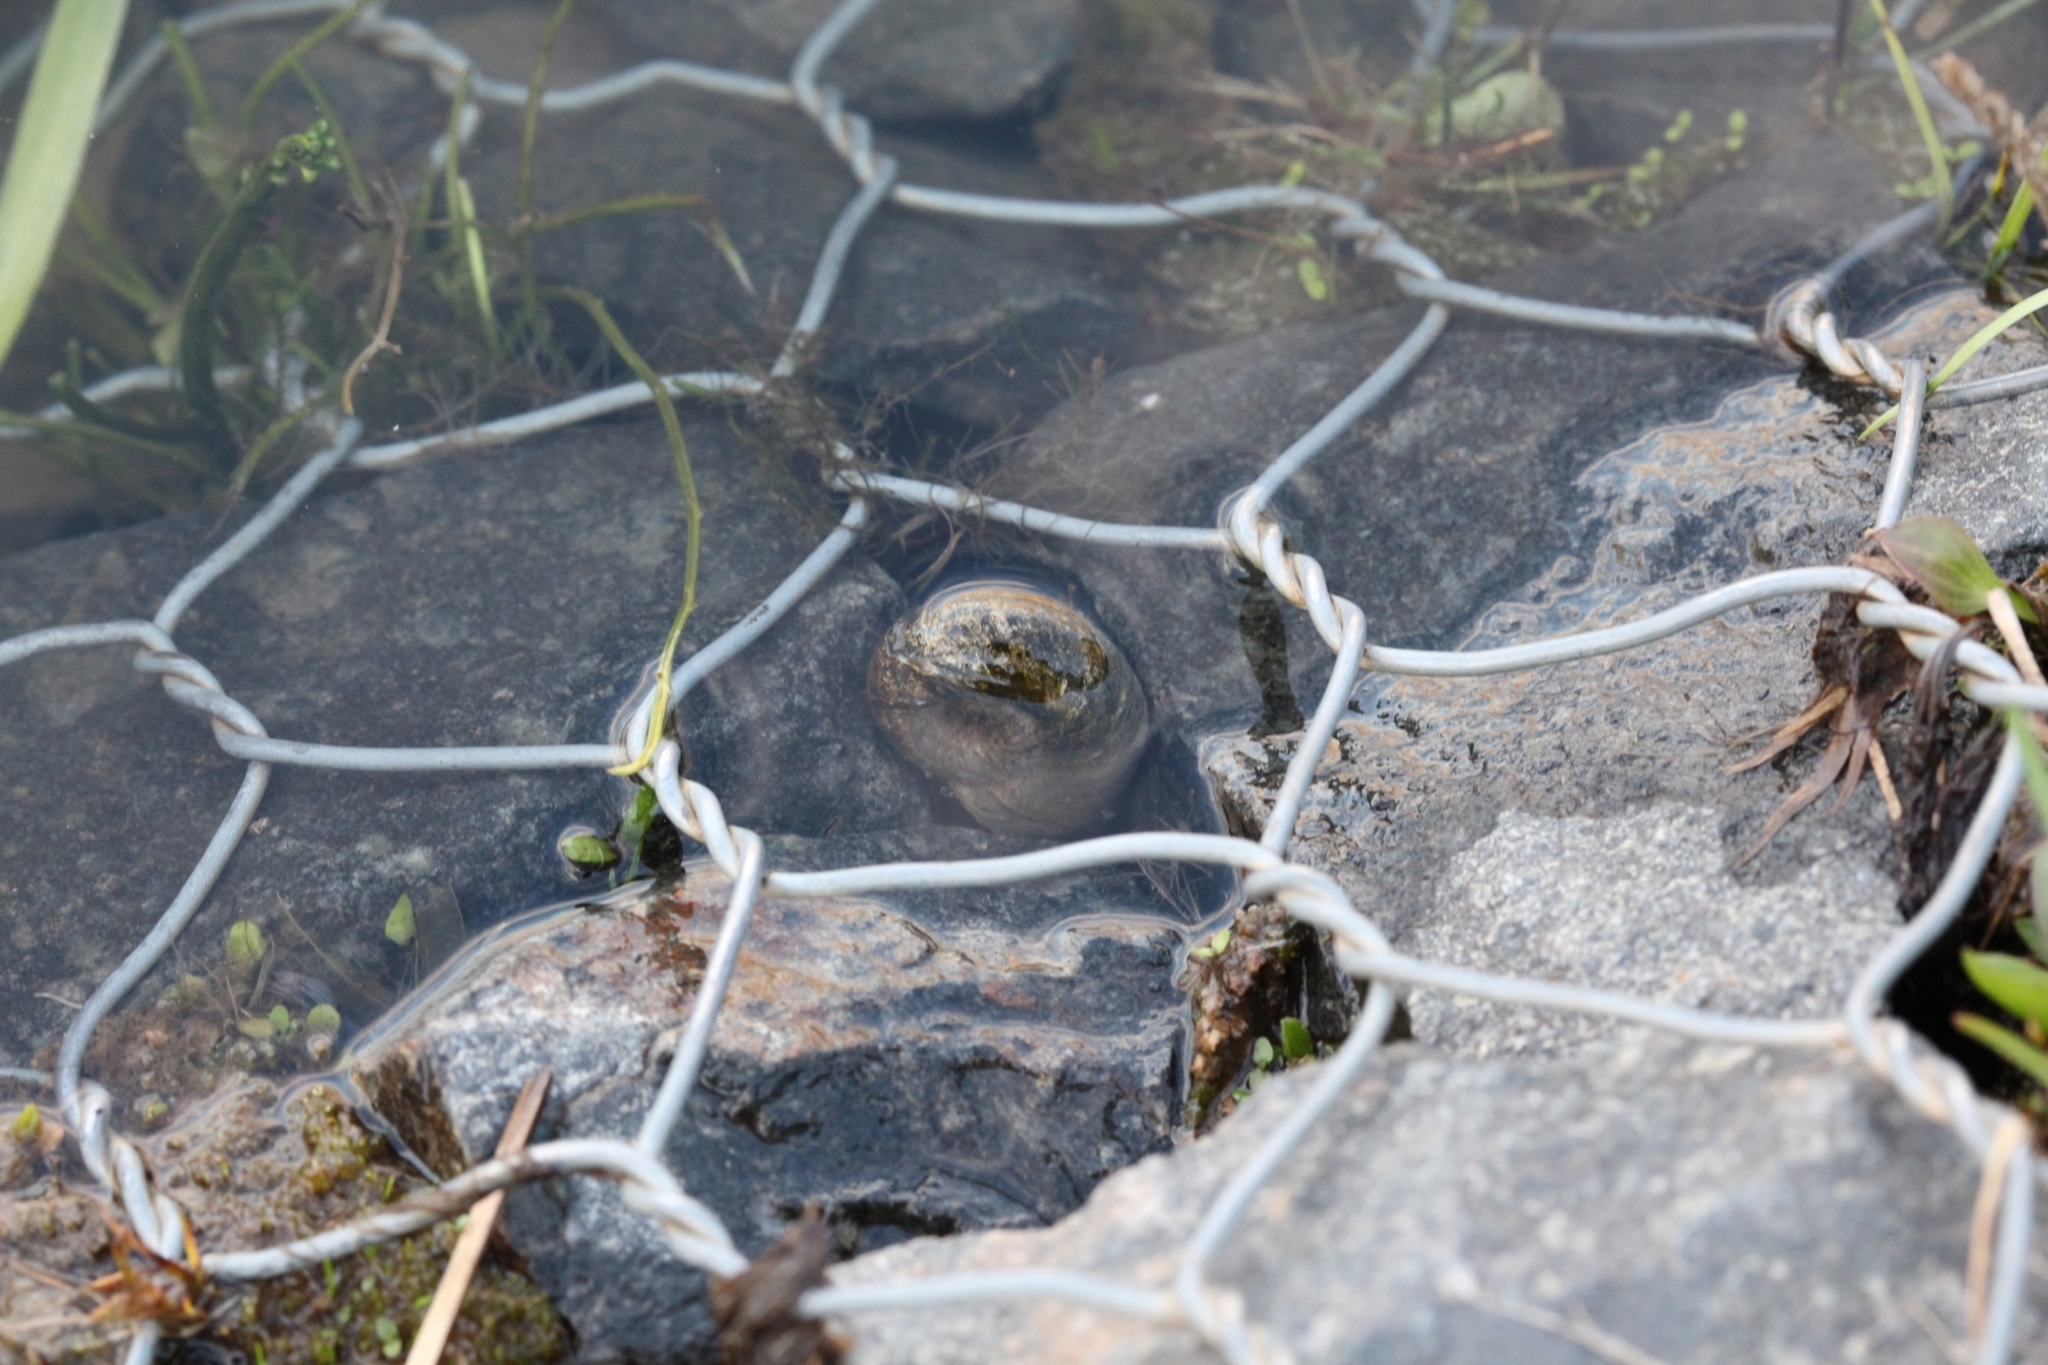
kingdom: Animalia
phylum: Mollusca
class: Gastropoda
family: Planorbidae
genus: Planorbarius
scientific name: Planorbarius corneus
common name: Great ramshorn
